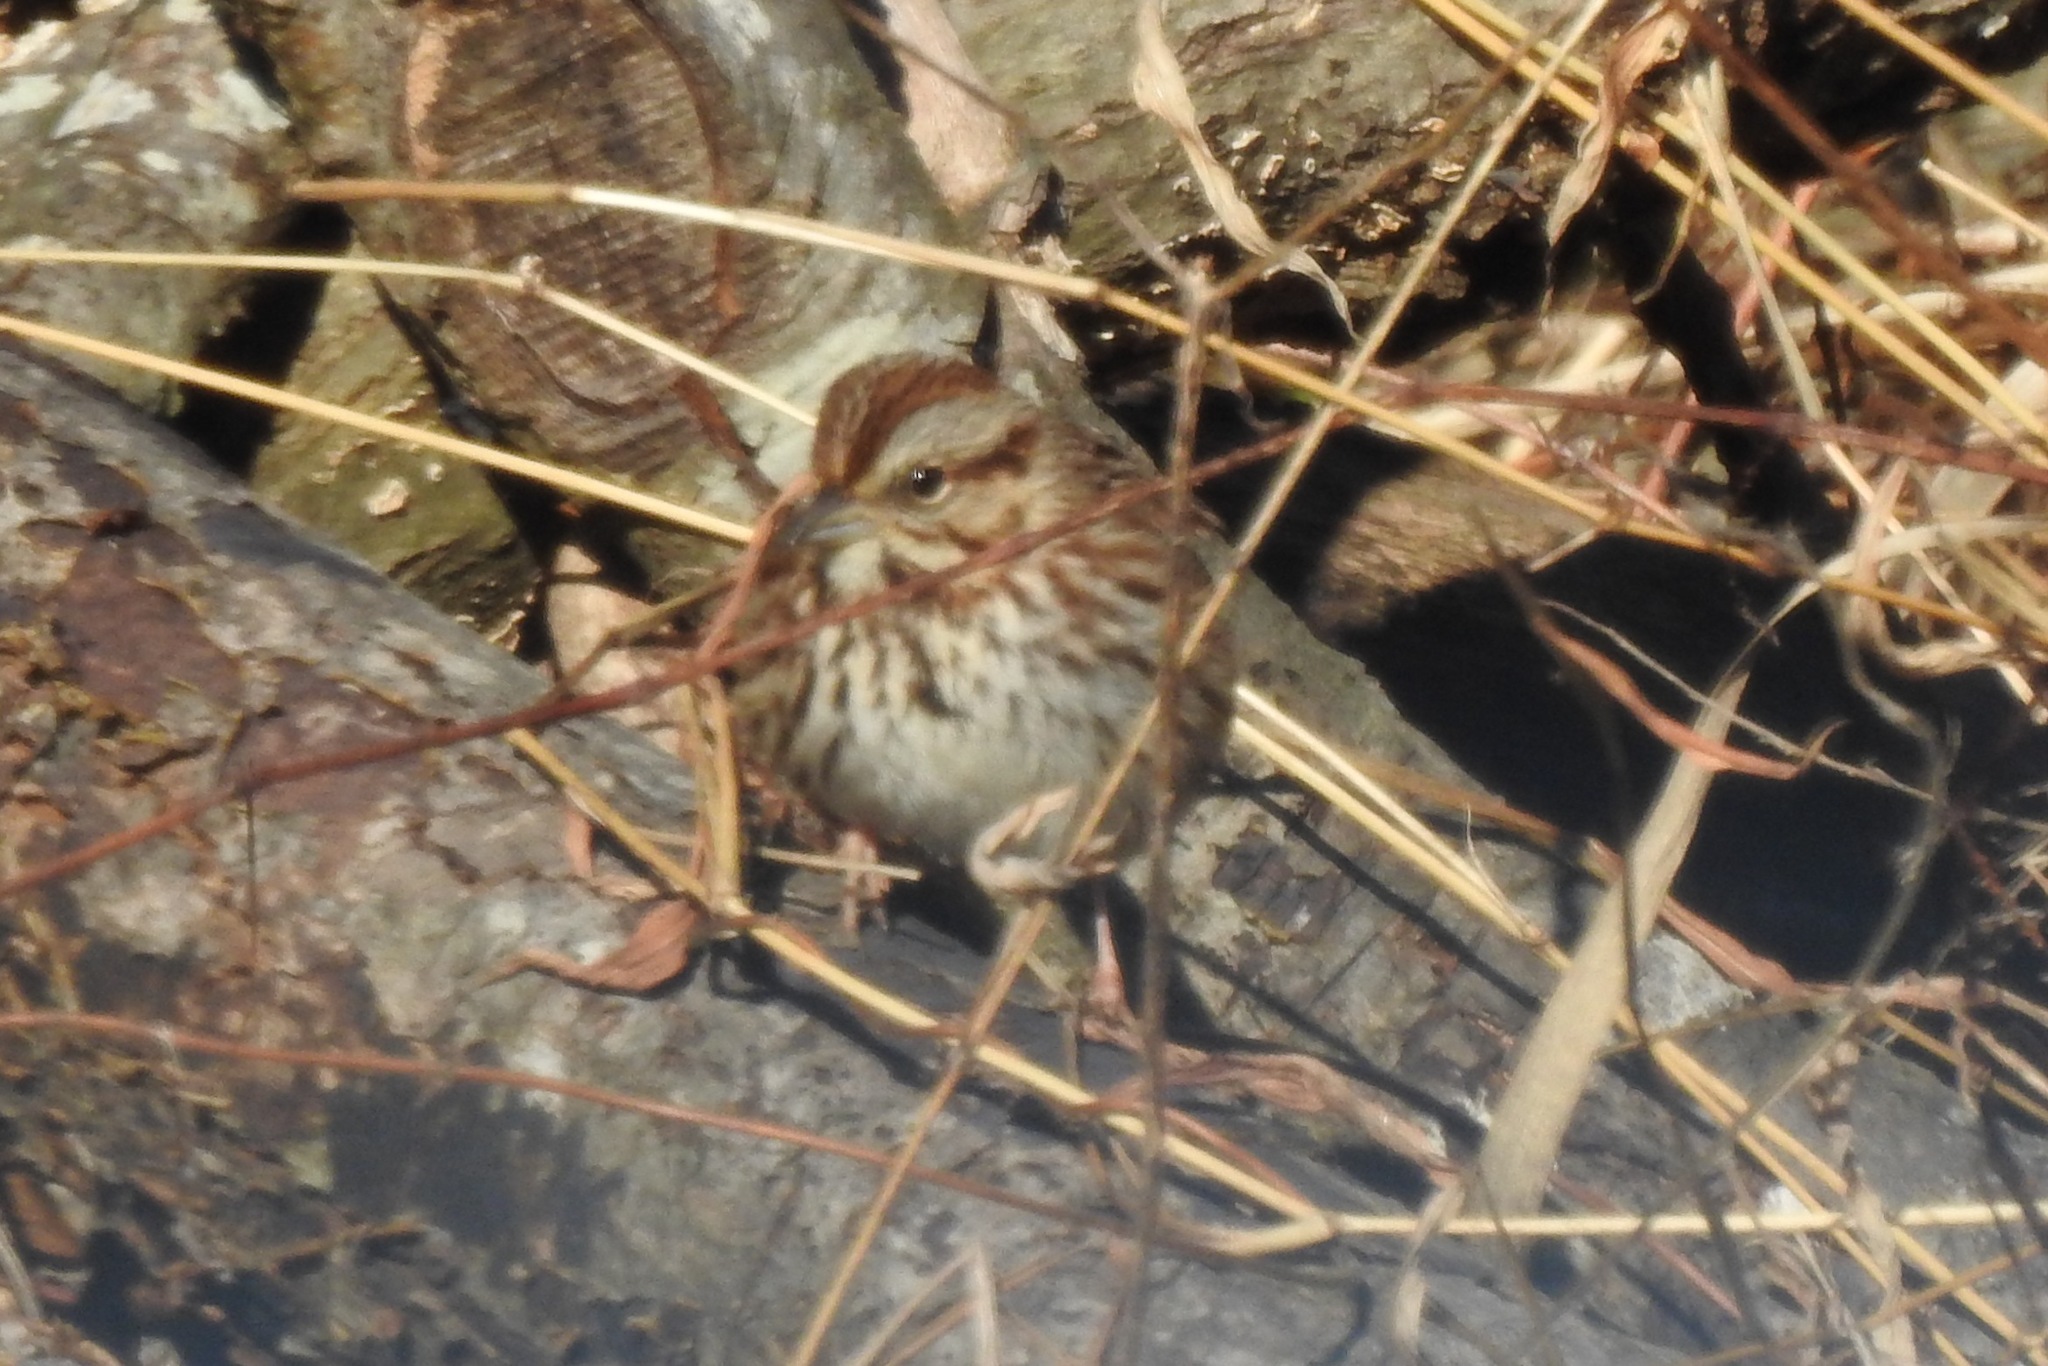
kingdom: Animalia
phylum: Chordata
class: Aves
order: Passeriformes
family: Passerellidae
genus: Melospiza
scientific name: Melospiza melodia
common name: Song sparrow
